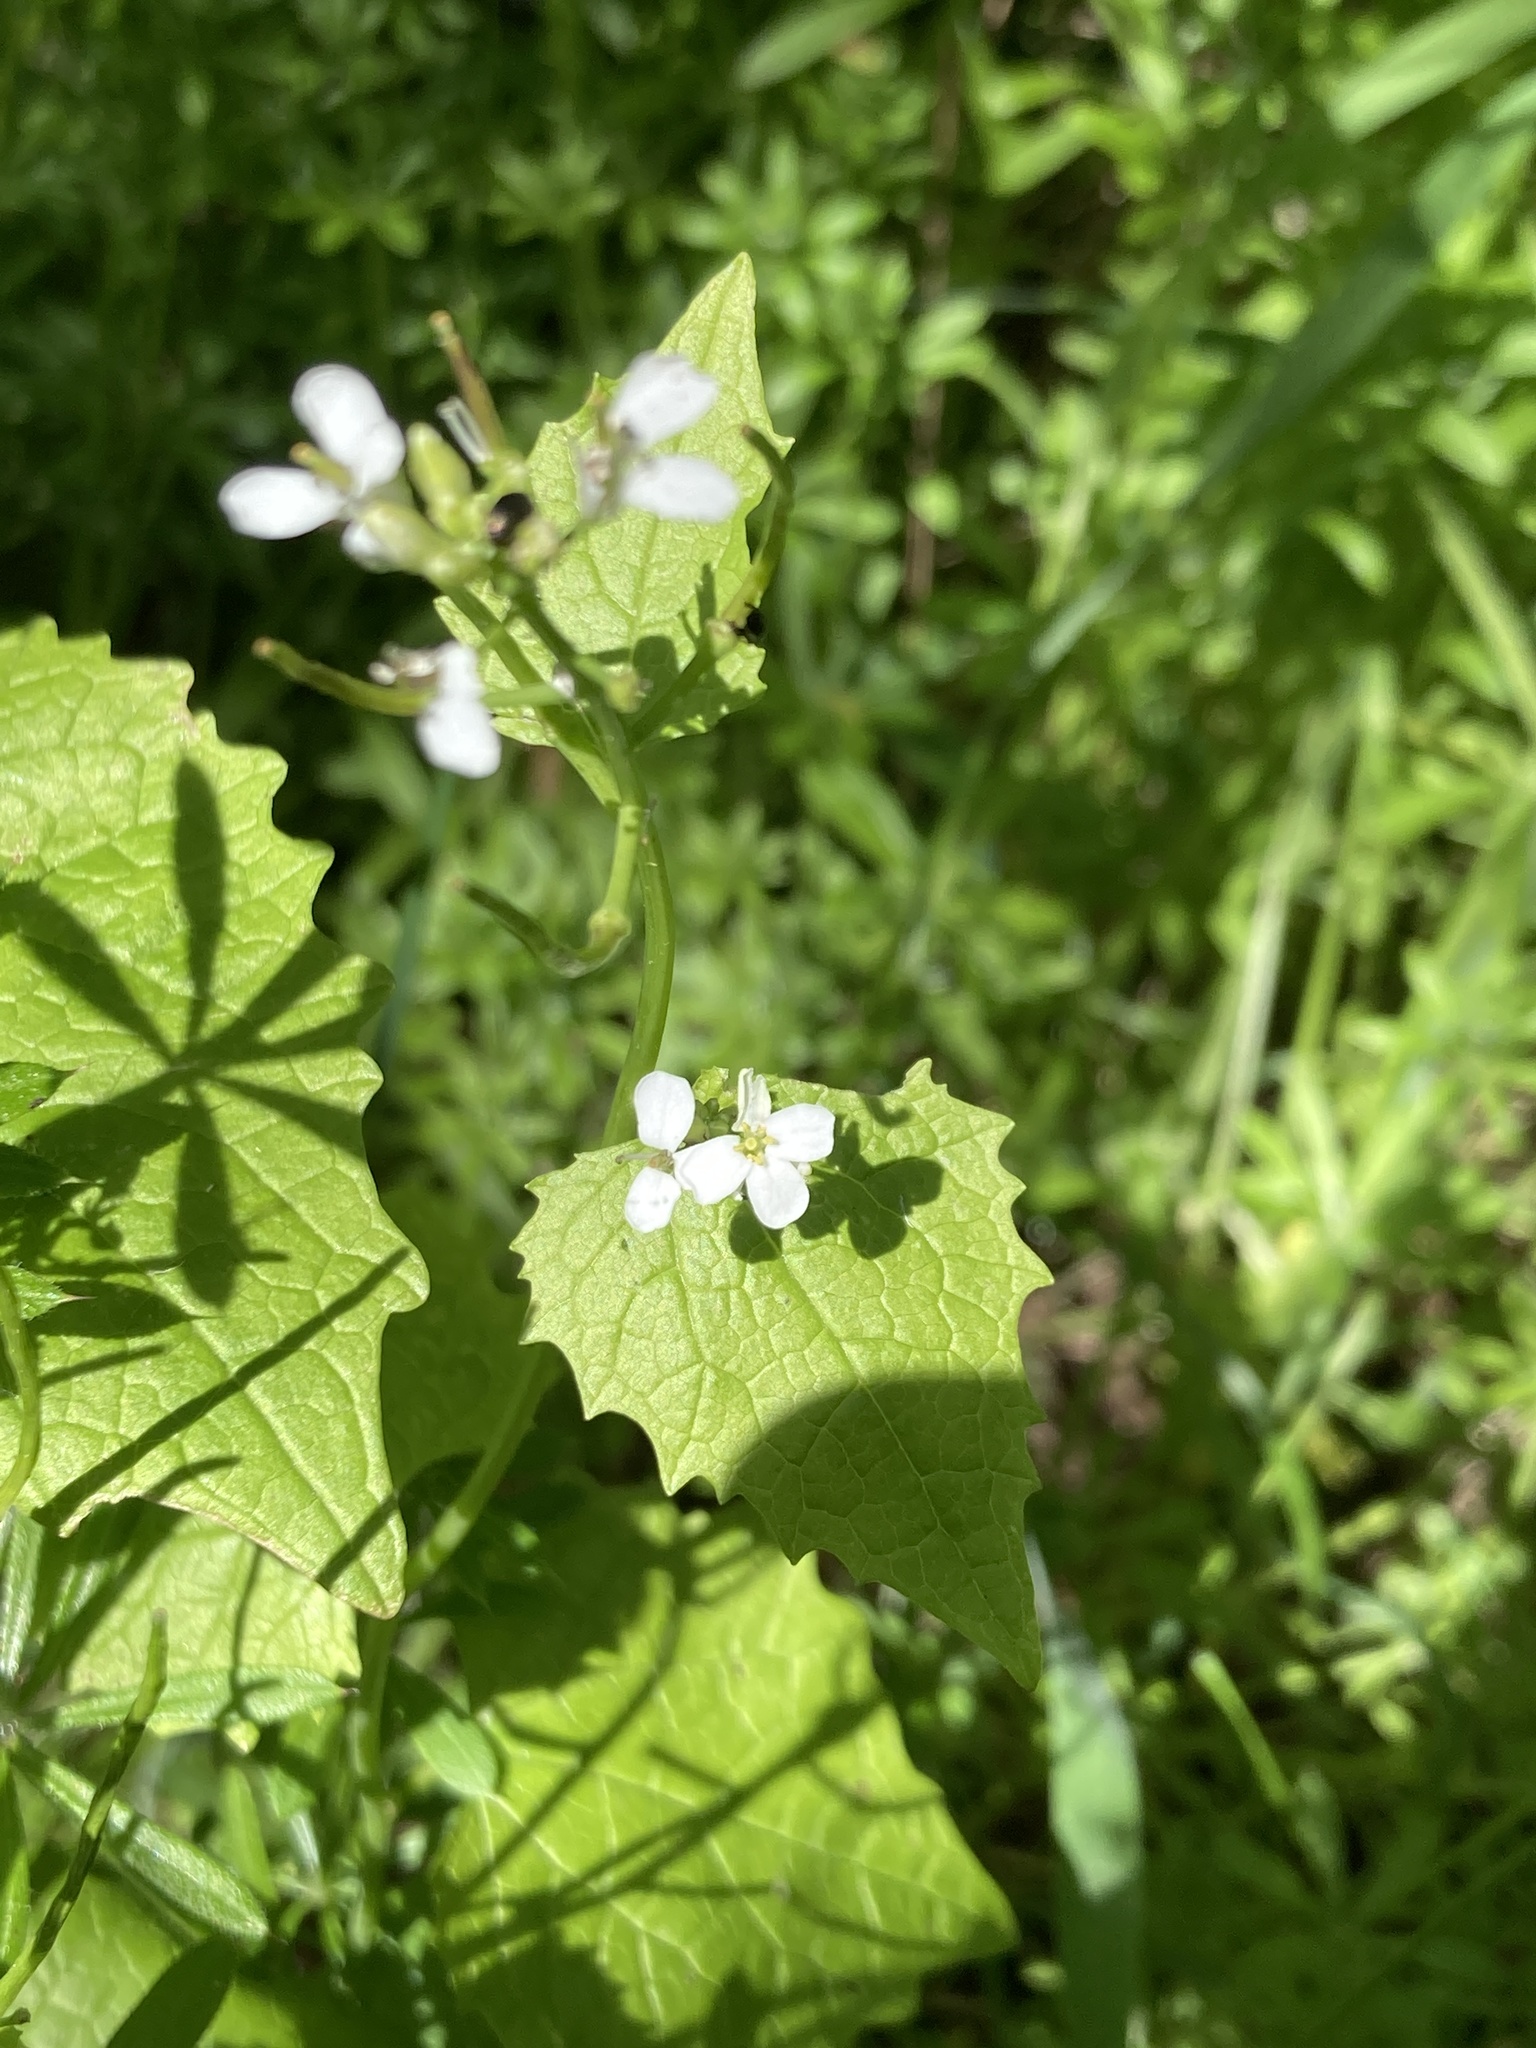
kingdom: Plantae
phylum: Tracheophyta
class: Magnoliopsida
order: Brassicales
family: Brassicaceae
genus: Alliaria
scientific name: Alliaria petiolata
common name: Garlic mustard
